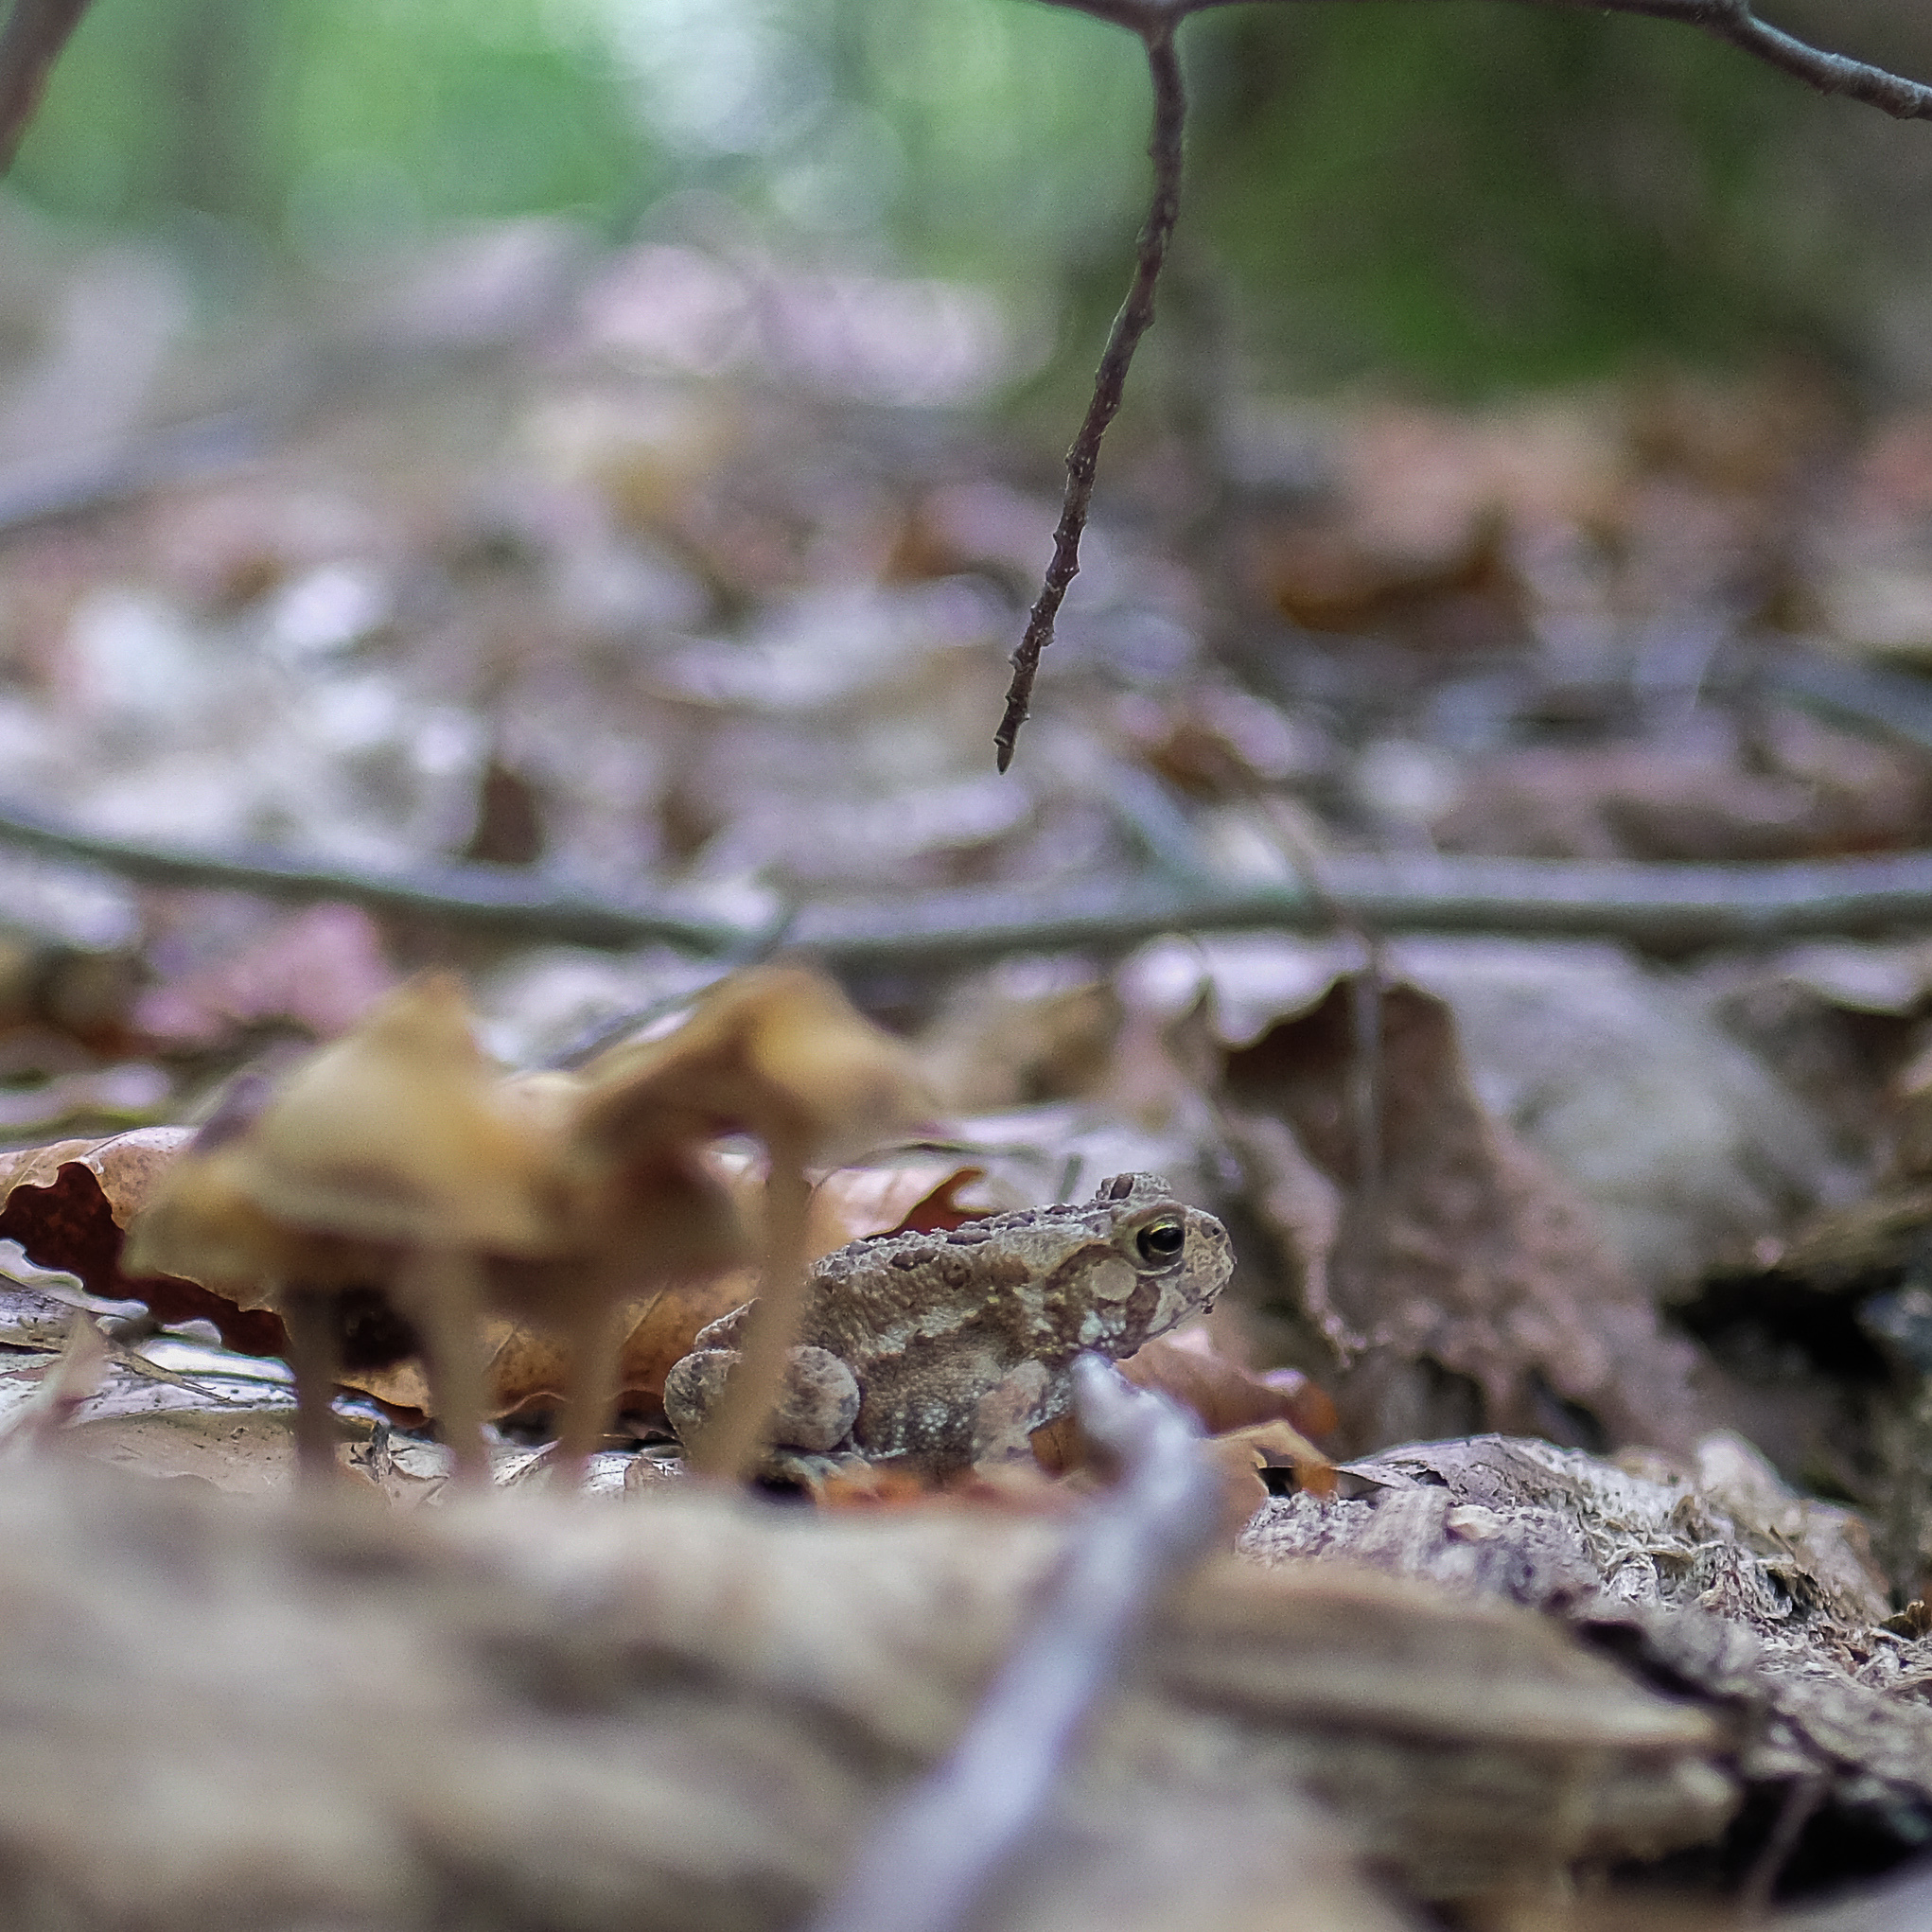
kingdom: Animalia
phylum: Chordata
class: Amphibia
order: Anura
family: Bufonidae
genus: Anaxyrus
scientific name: Anaxyrus americanus
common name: American toad
